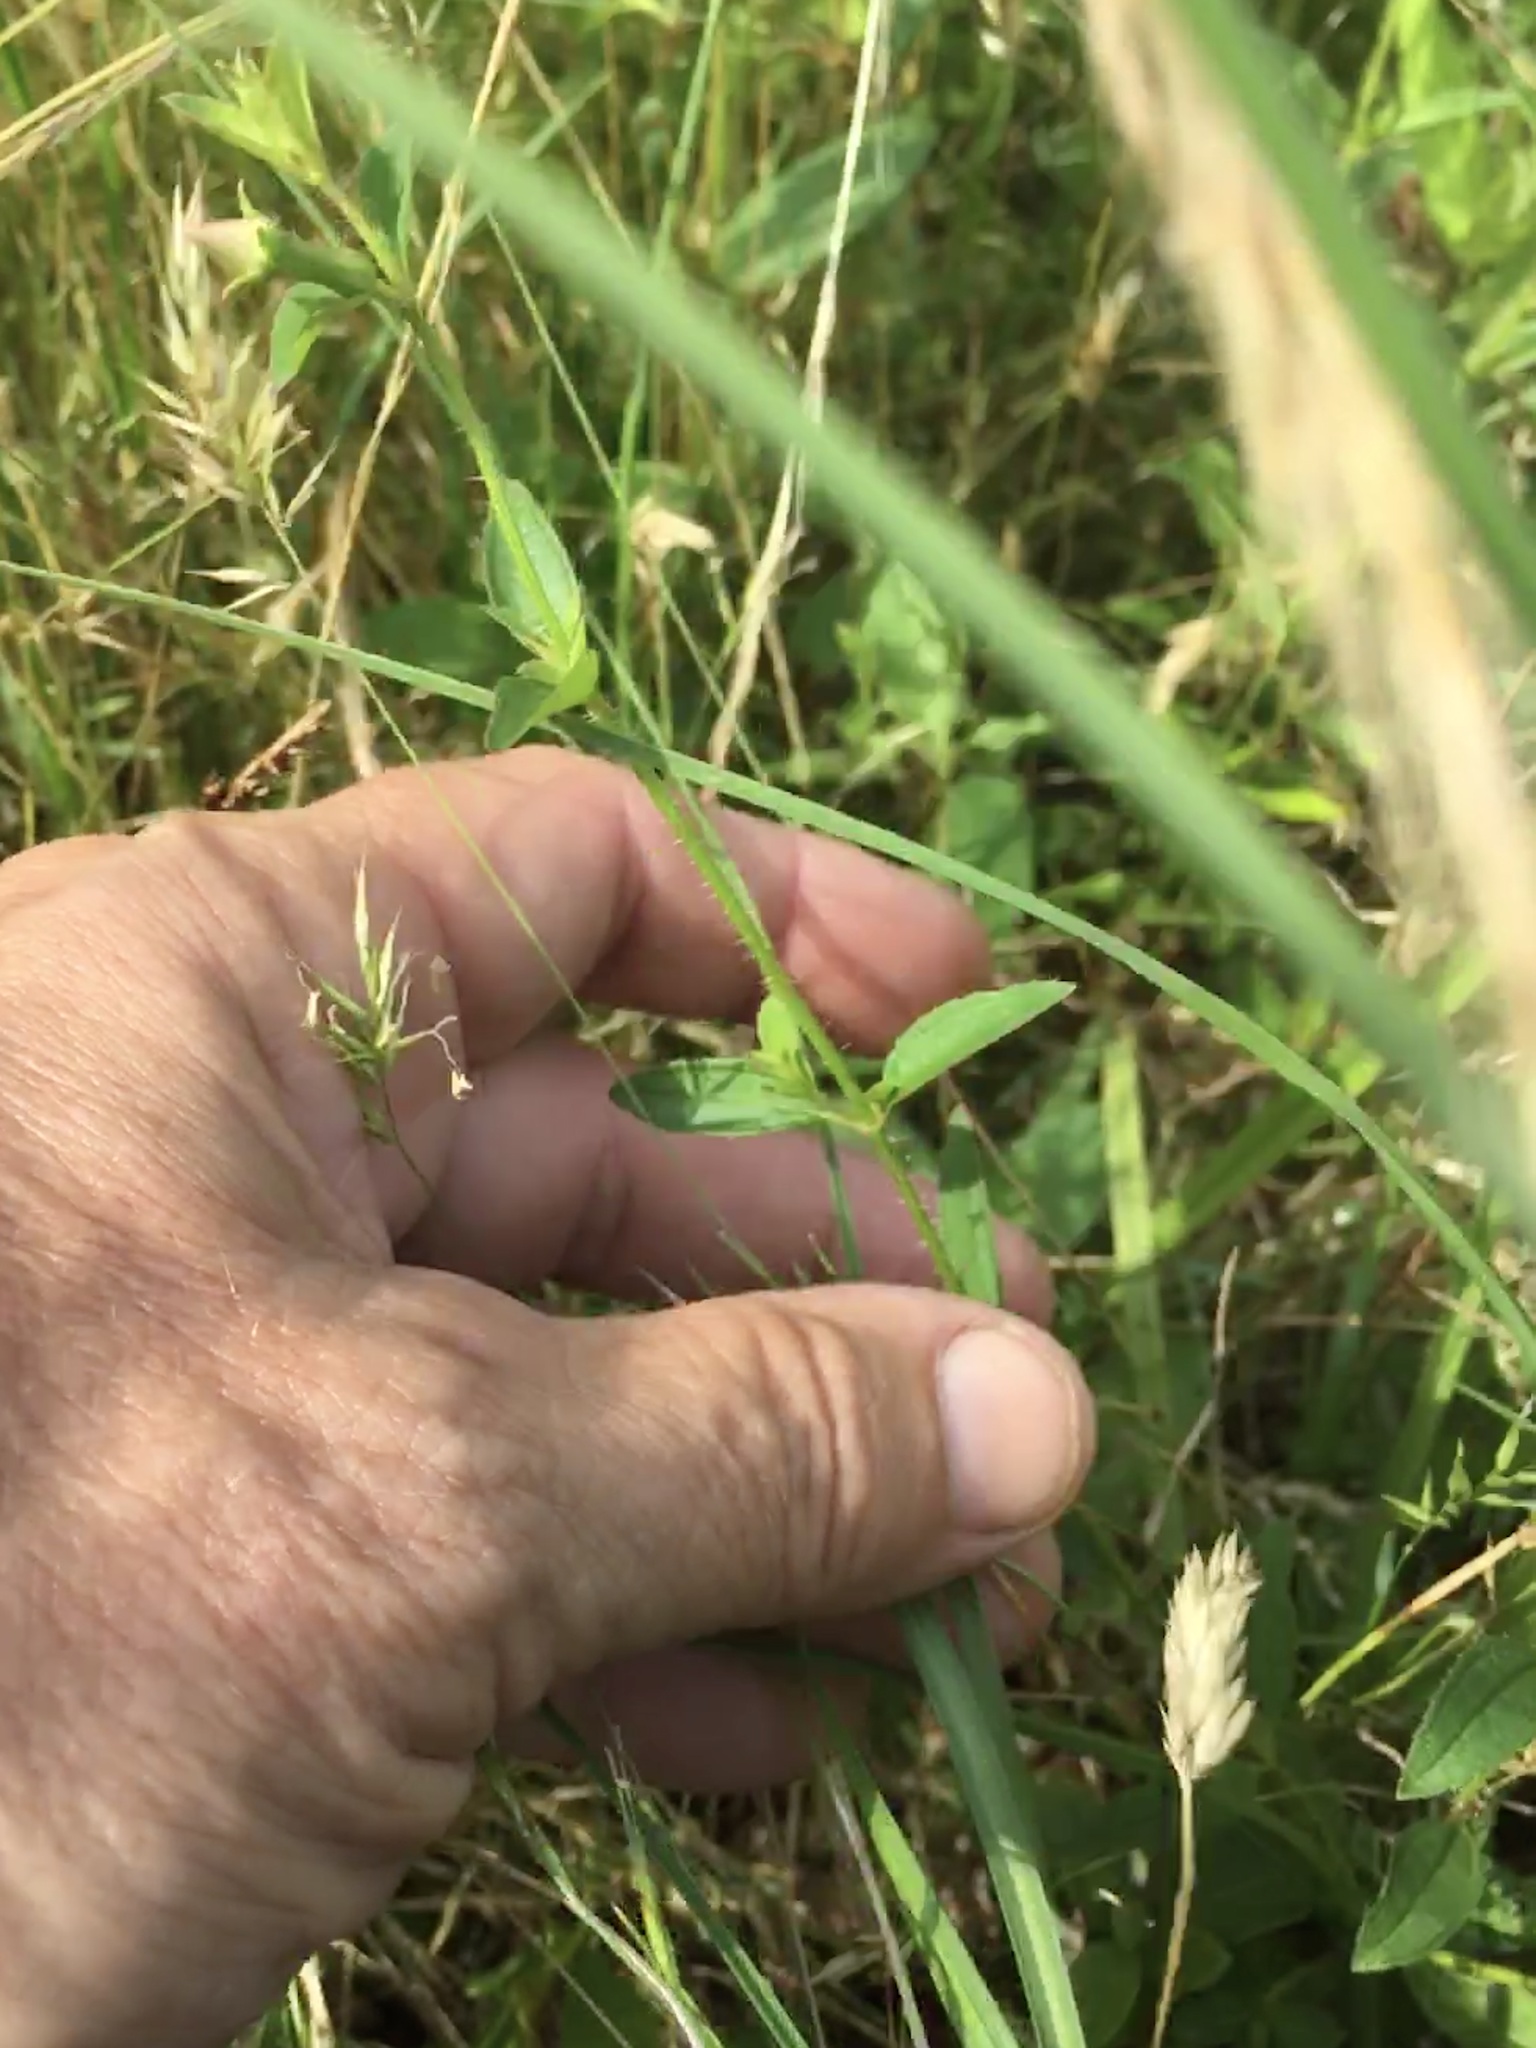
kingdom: Plantae
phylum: Tracheophyta
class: Magnoliopsida
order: Myrtales
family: Melastomataceae
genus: Rhexia
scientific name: Rhexia mariana
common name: Dull meadow-pitcher
